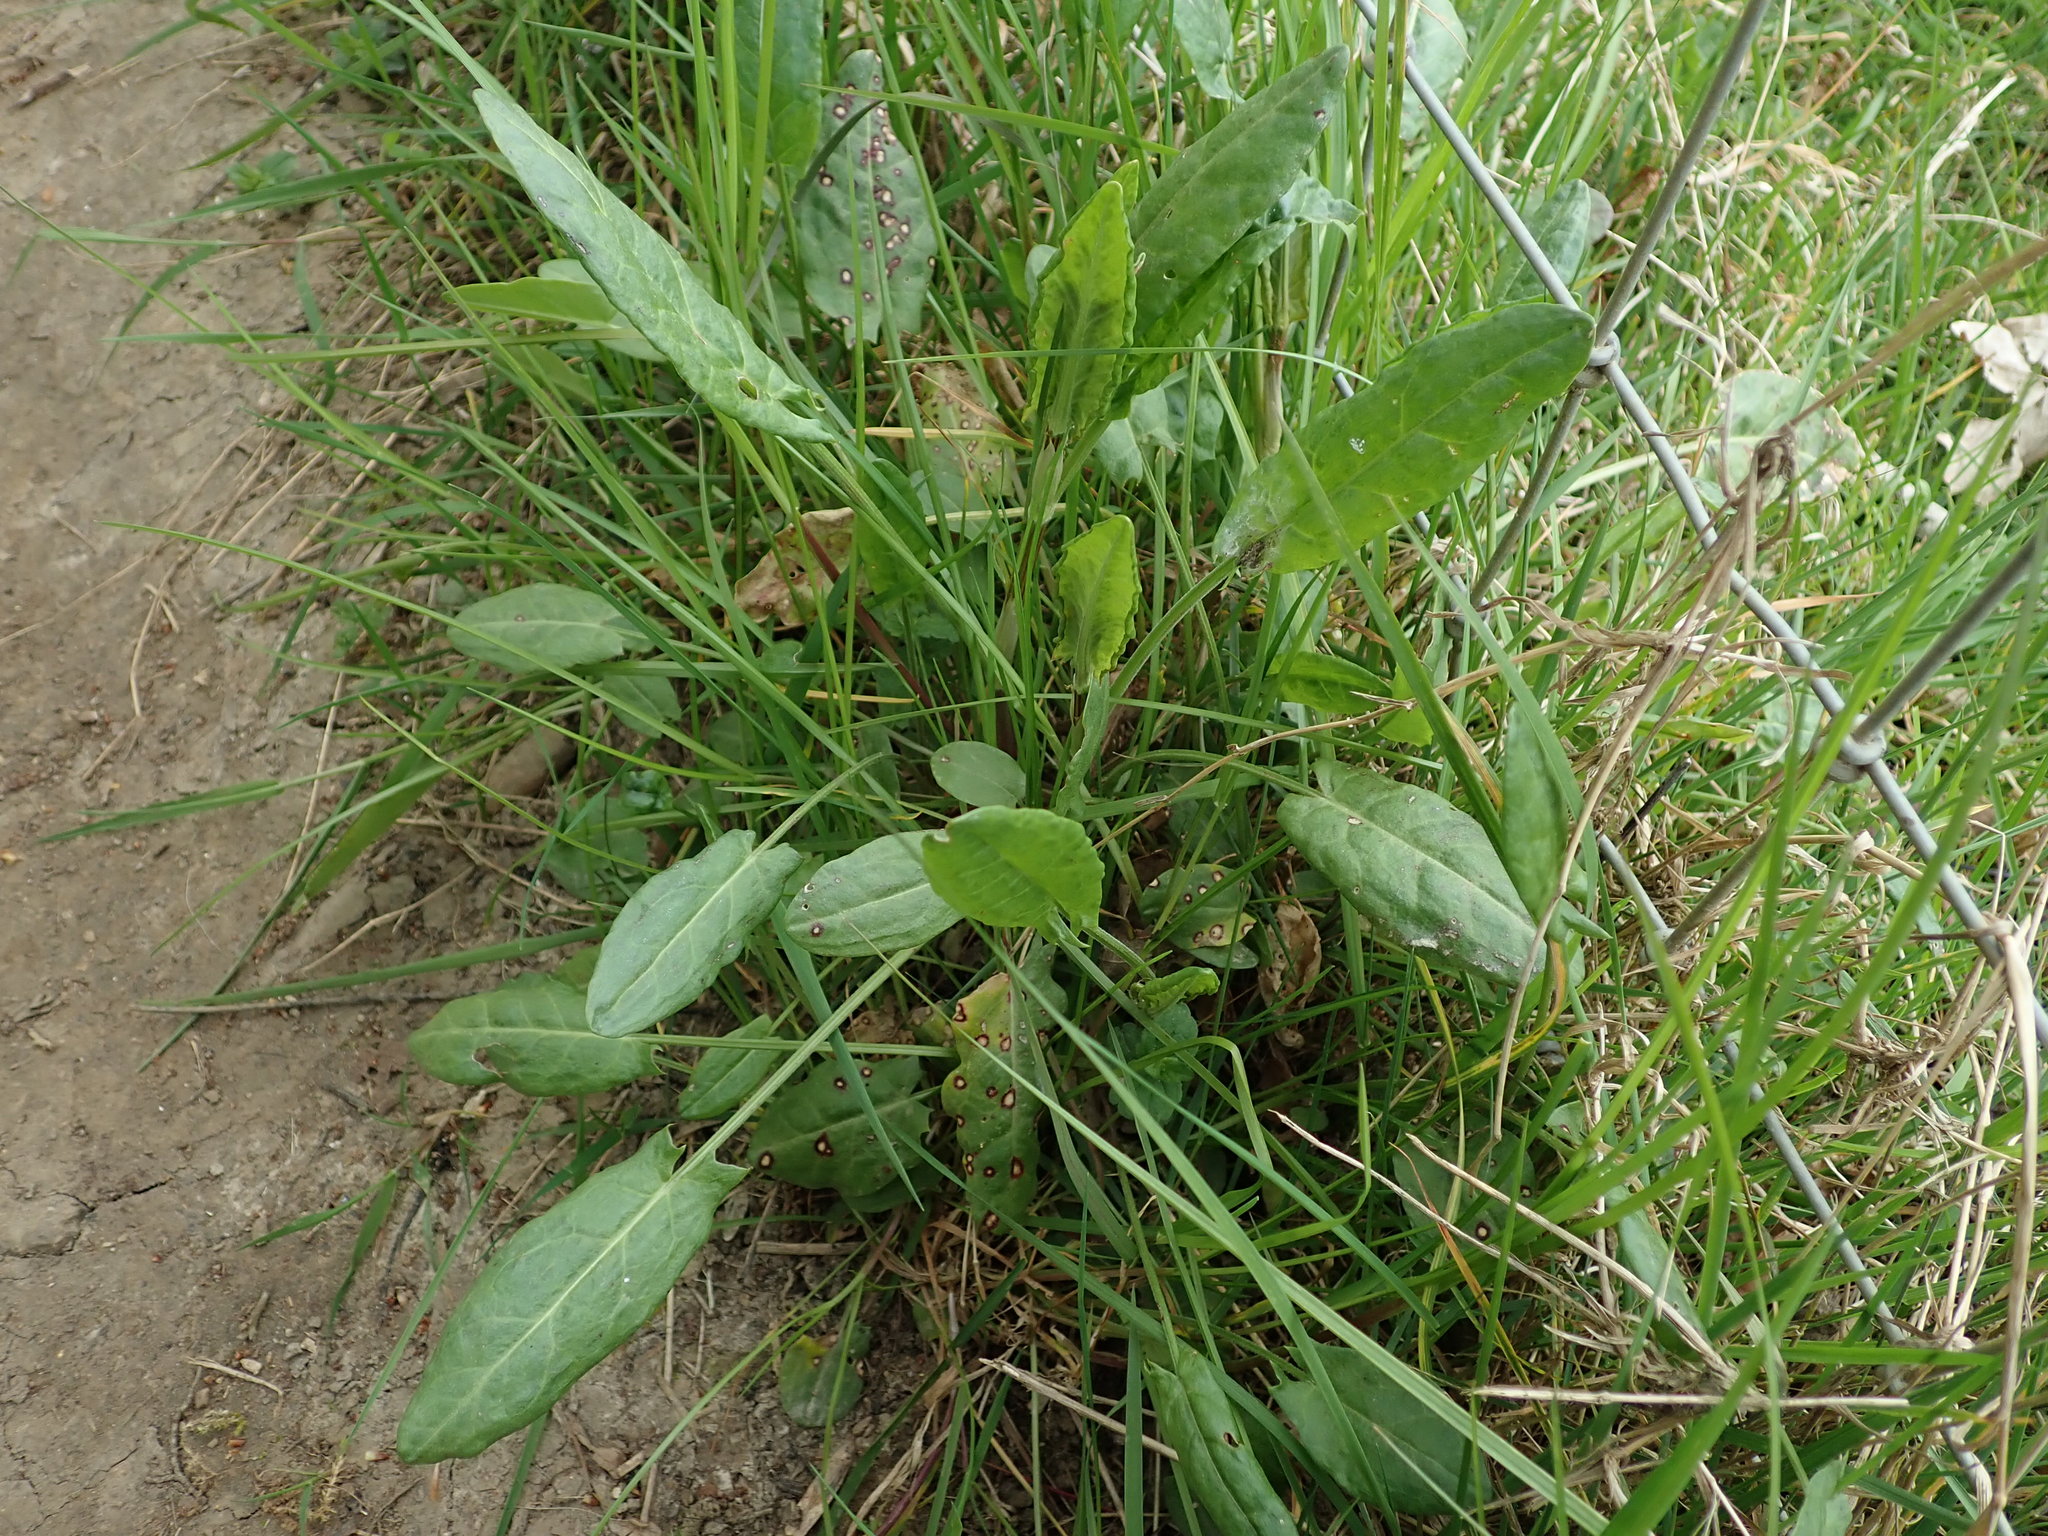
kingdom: Plantae
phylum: Tracheophyta
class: Magnoliopsida
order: Caryophyllales
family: Polygonaceae
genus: Rumex
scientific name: Rumex acetosa
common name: Garden sorrel
